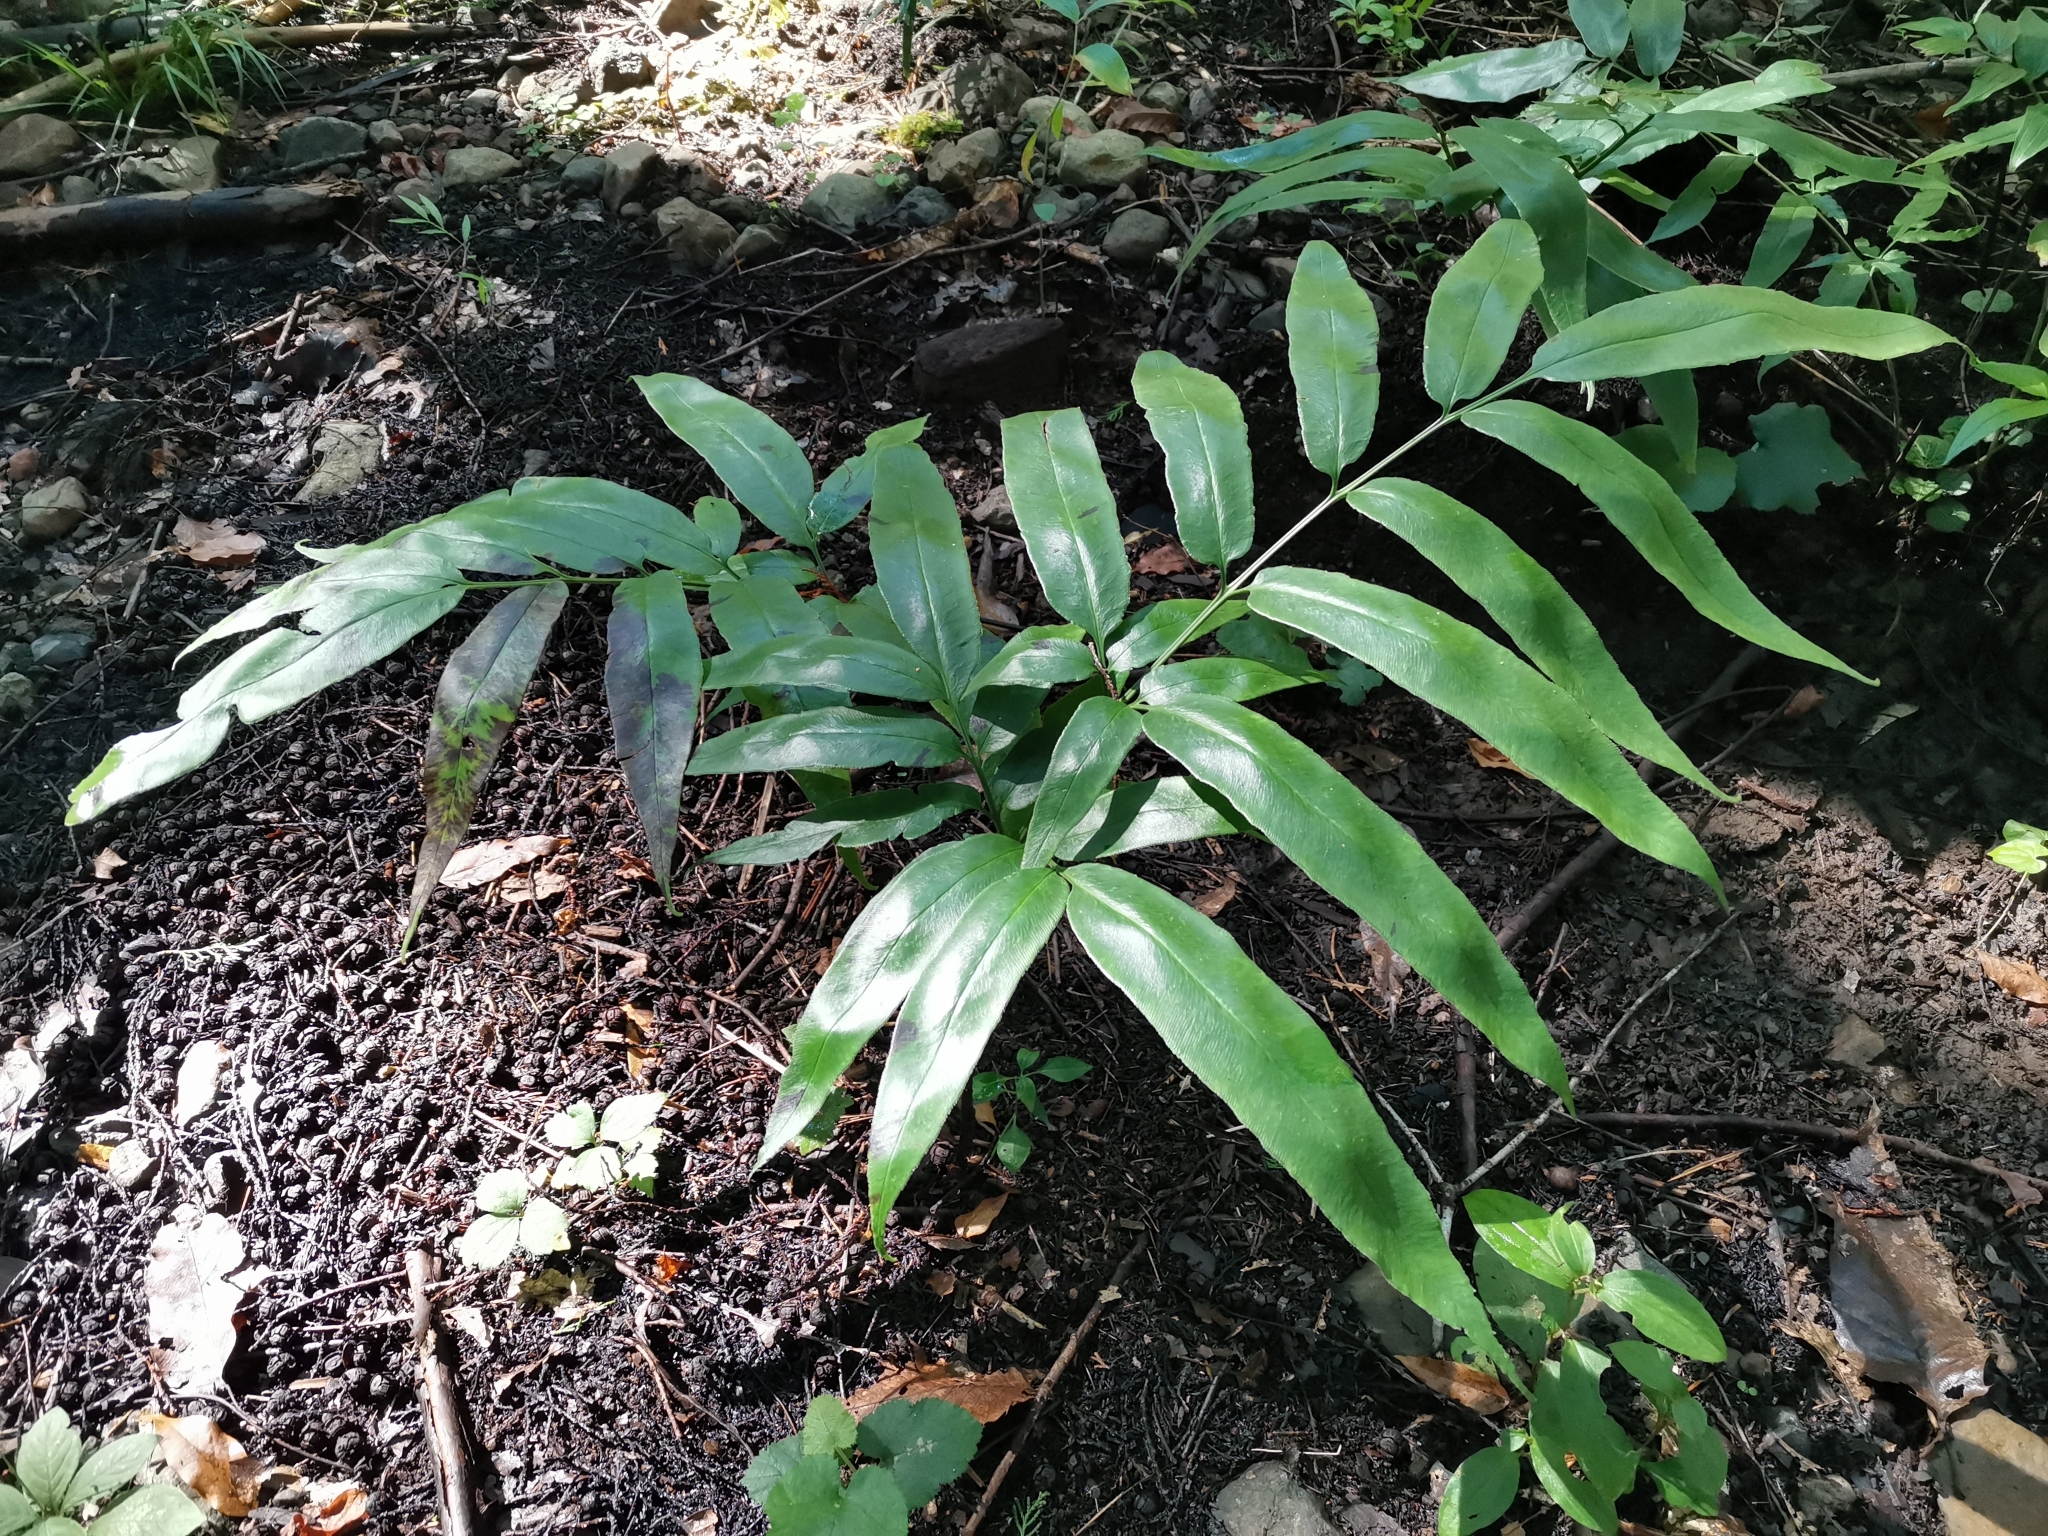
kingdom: Plantae
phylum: Tracheophyta
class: Polypodiopsida
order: Polypodiales
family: Pteridaceae
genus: Coniogramme
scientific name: Coniogramme japonica
